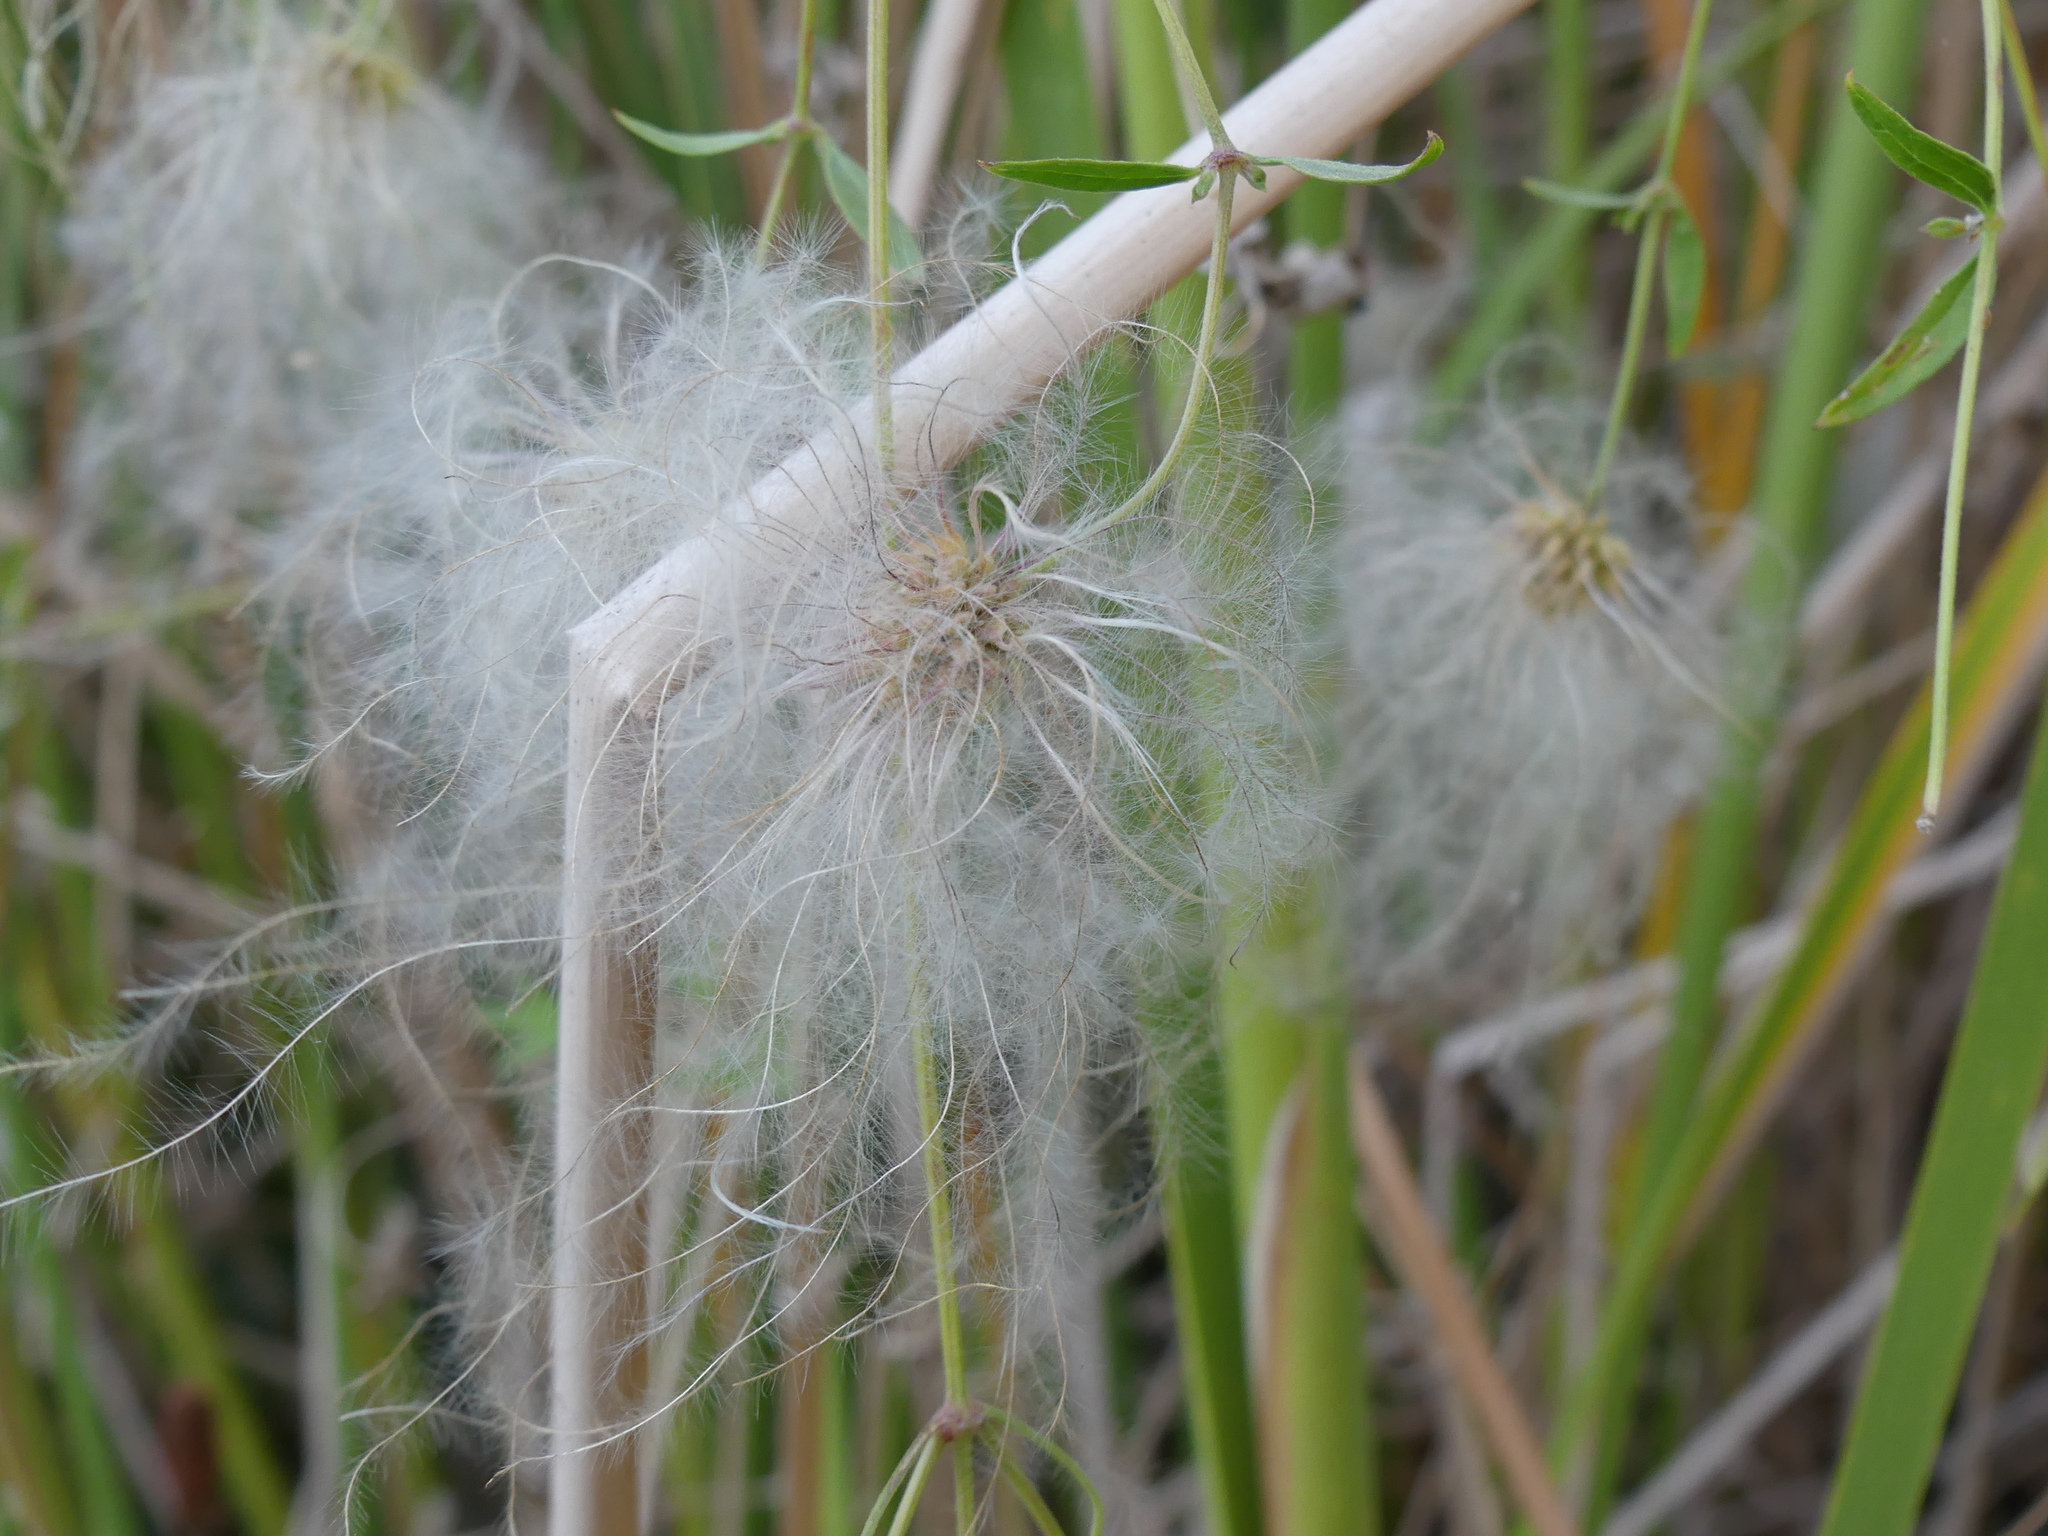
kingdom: Plantae
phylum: Tracheophyta
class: Magnoliopsida
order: Ranunculales
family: Ranunculaceae
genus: Clematis
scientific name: Clematis drummondii
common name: Texas virgin's bower
